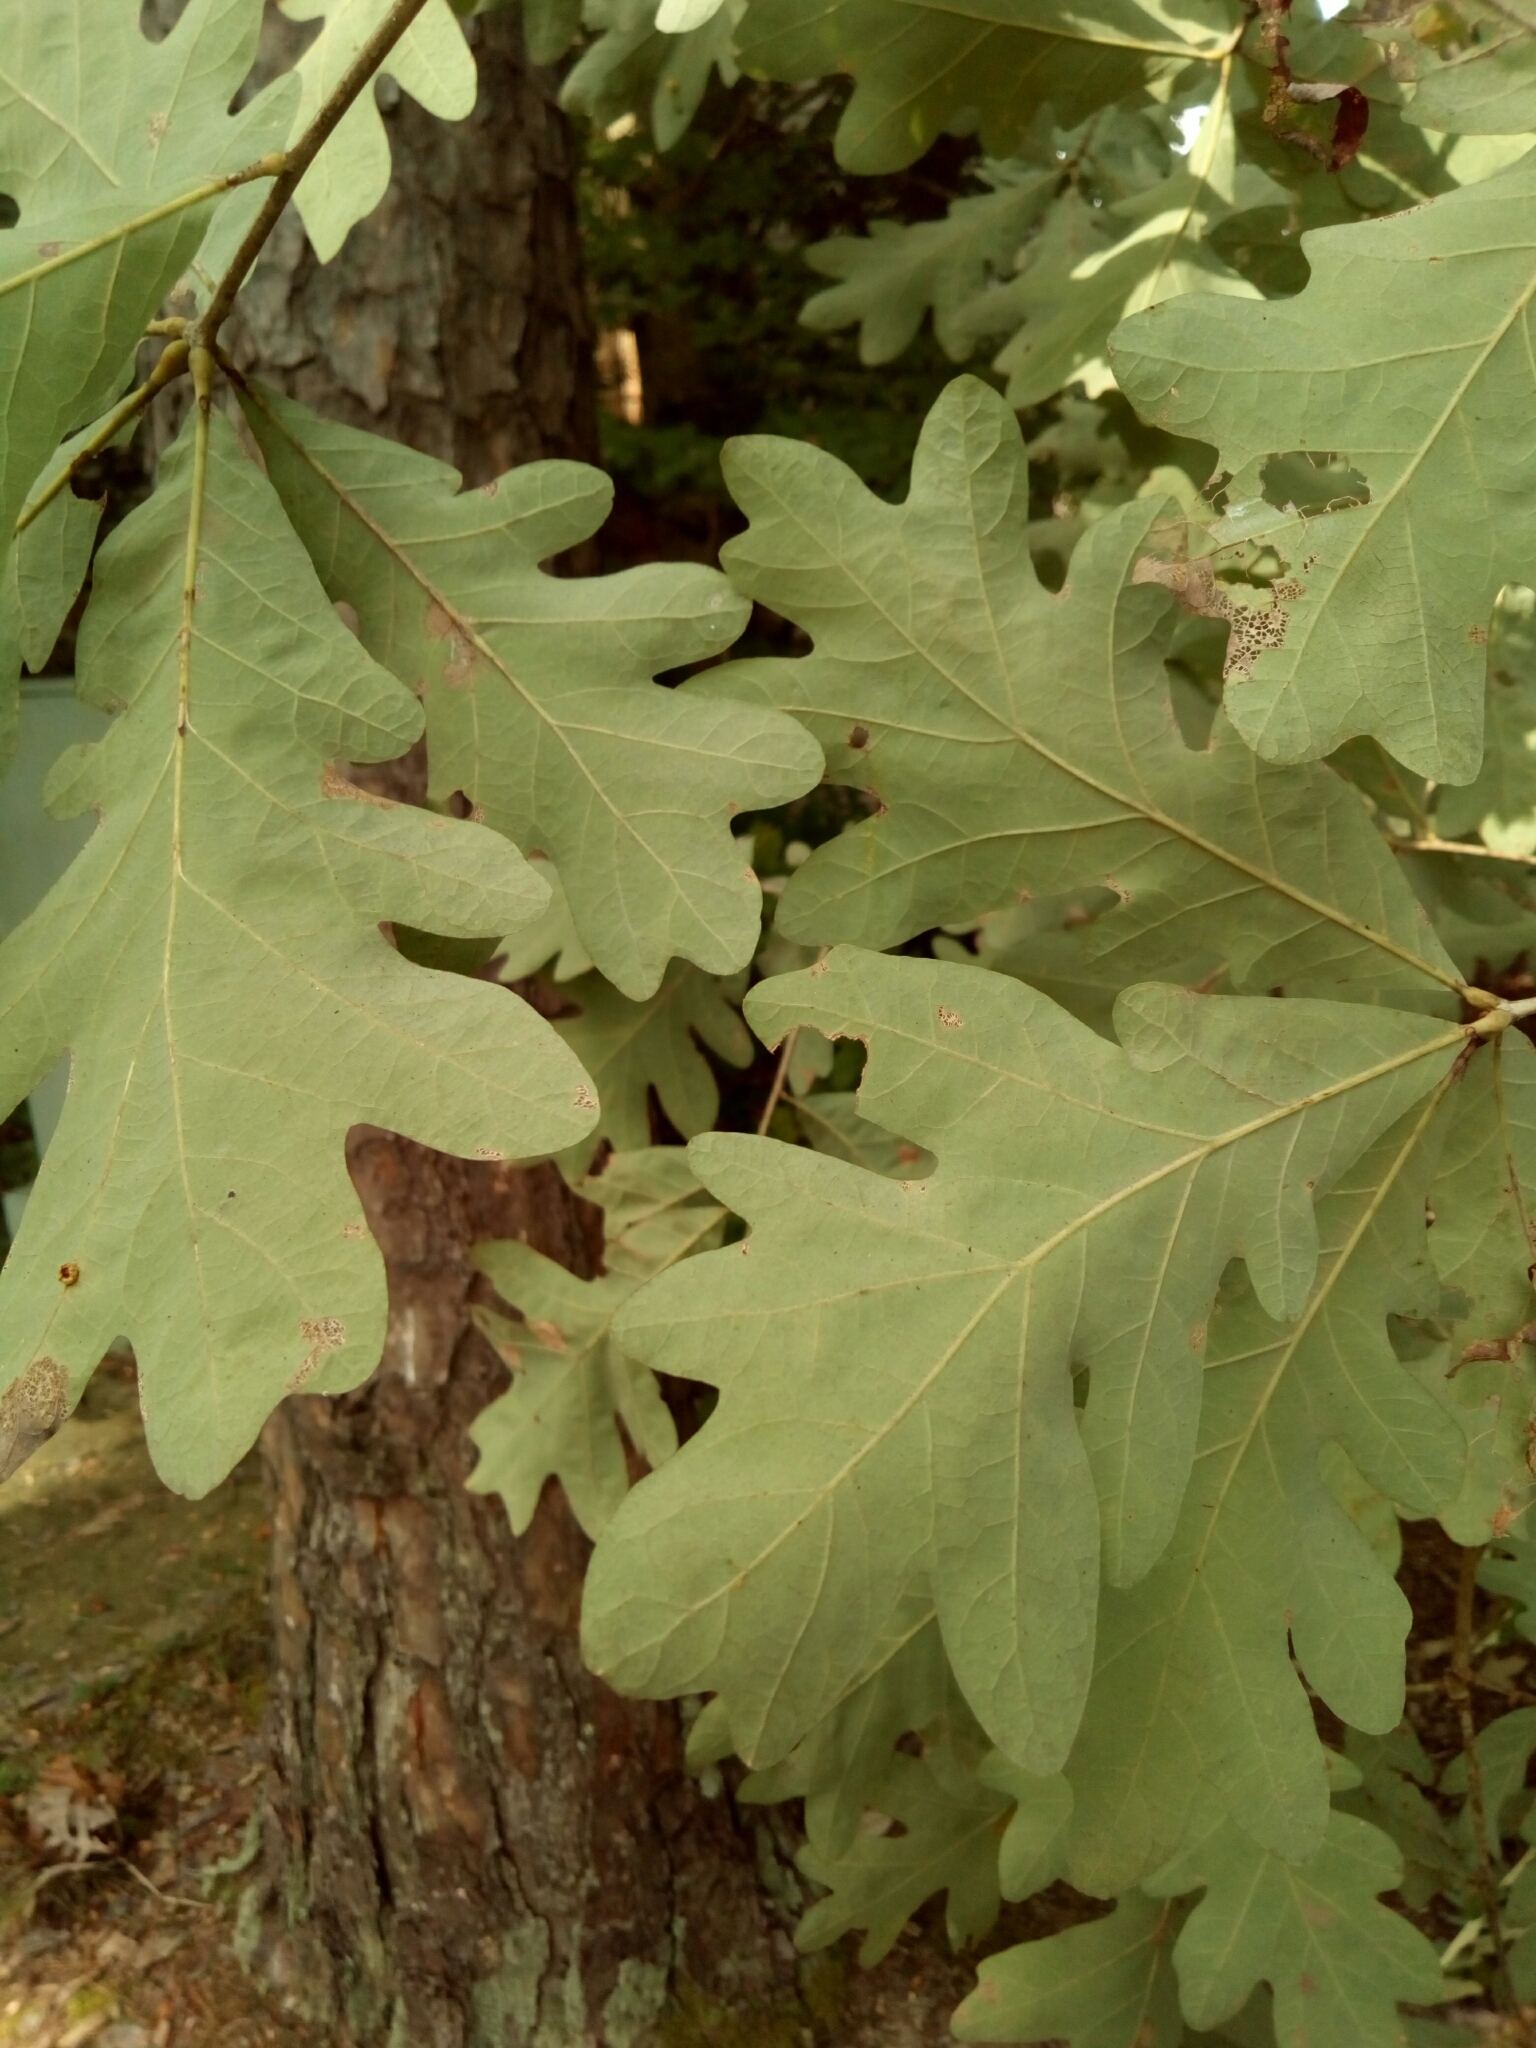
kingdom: Plantae
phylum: Tracheophyta
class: Magnoliopsida
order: Fagales
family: Fagaceae
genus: Quercus
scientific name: Quercus alba
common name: White oak
